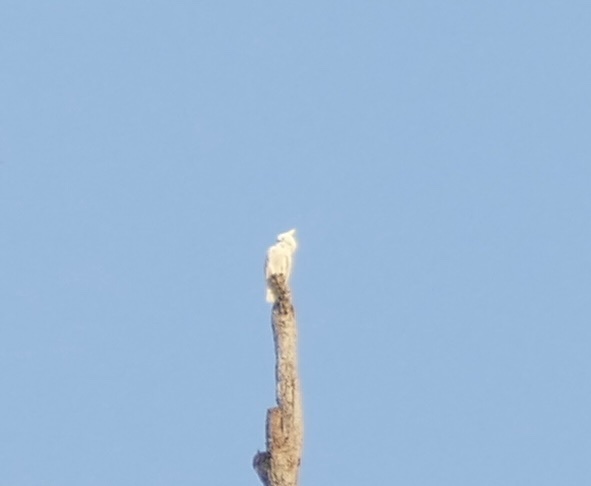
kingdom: Animalia
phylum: Chordata
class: Aves
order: Psittaciformes
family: Psittacidae
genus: Cacatua
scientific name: Cacatua galerita
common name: Sulphur-crested cockatoo
